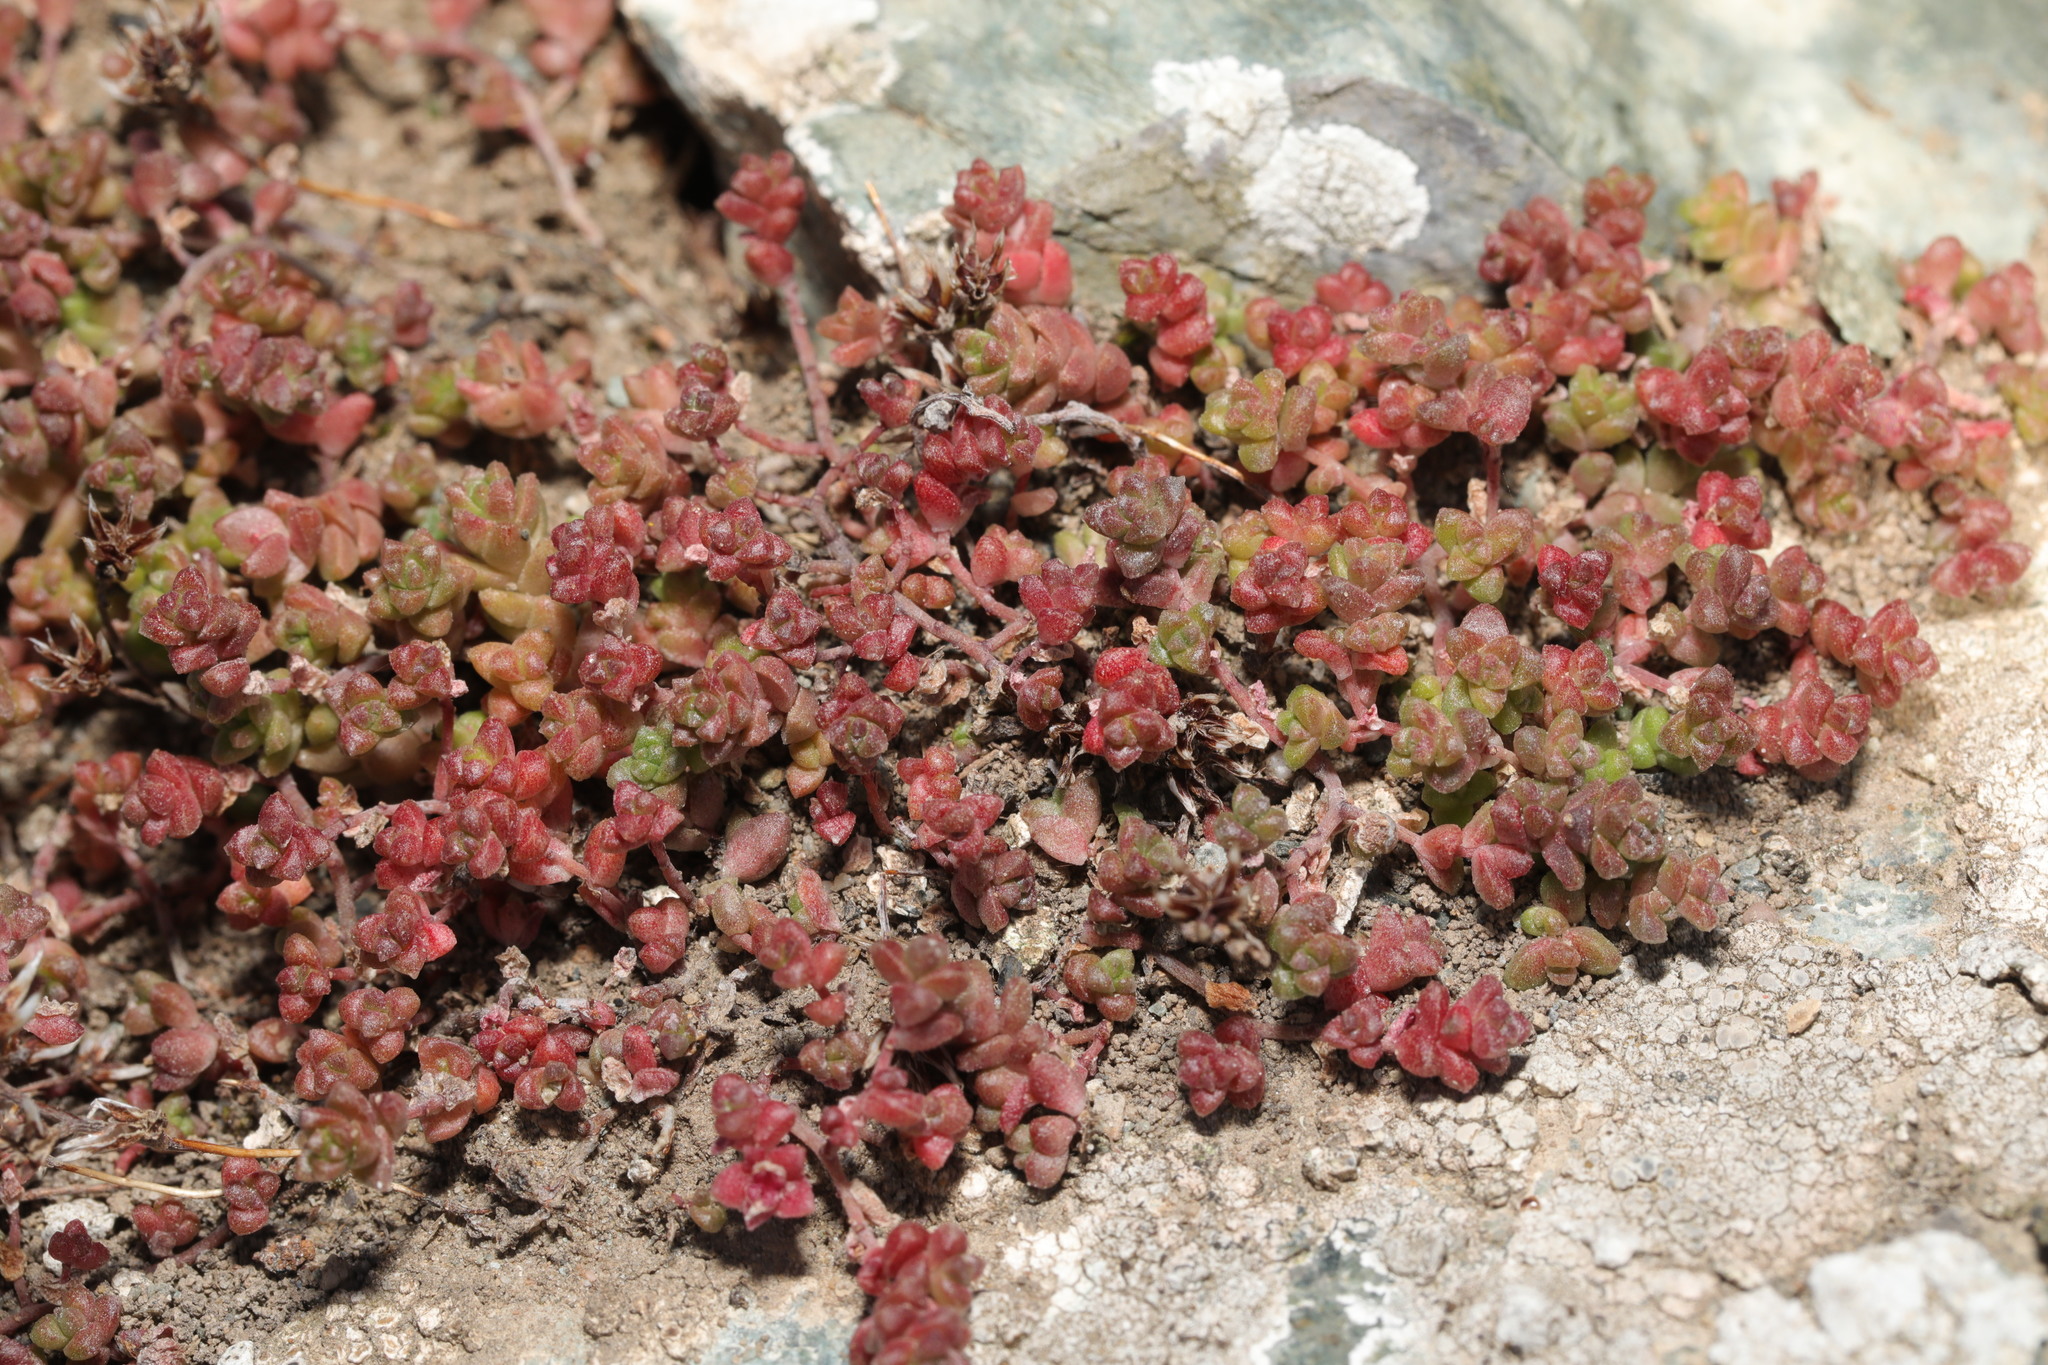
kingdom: Plantae
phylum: Tracheophyta
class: Magnoliopsida
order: Saxifragales
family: Crassulaceae
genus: Sedum
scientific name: Sedum anglicum
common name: English stonecrop
